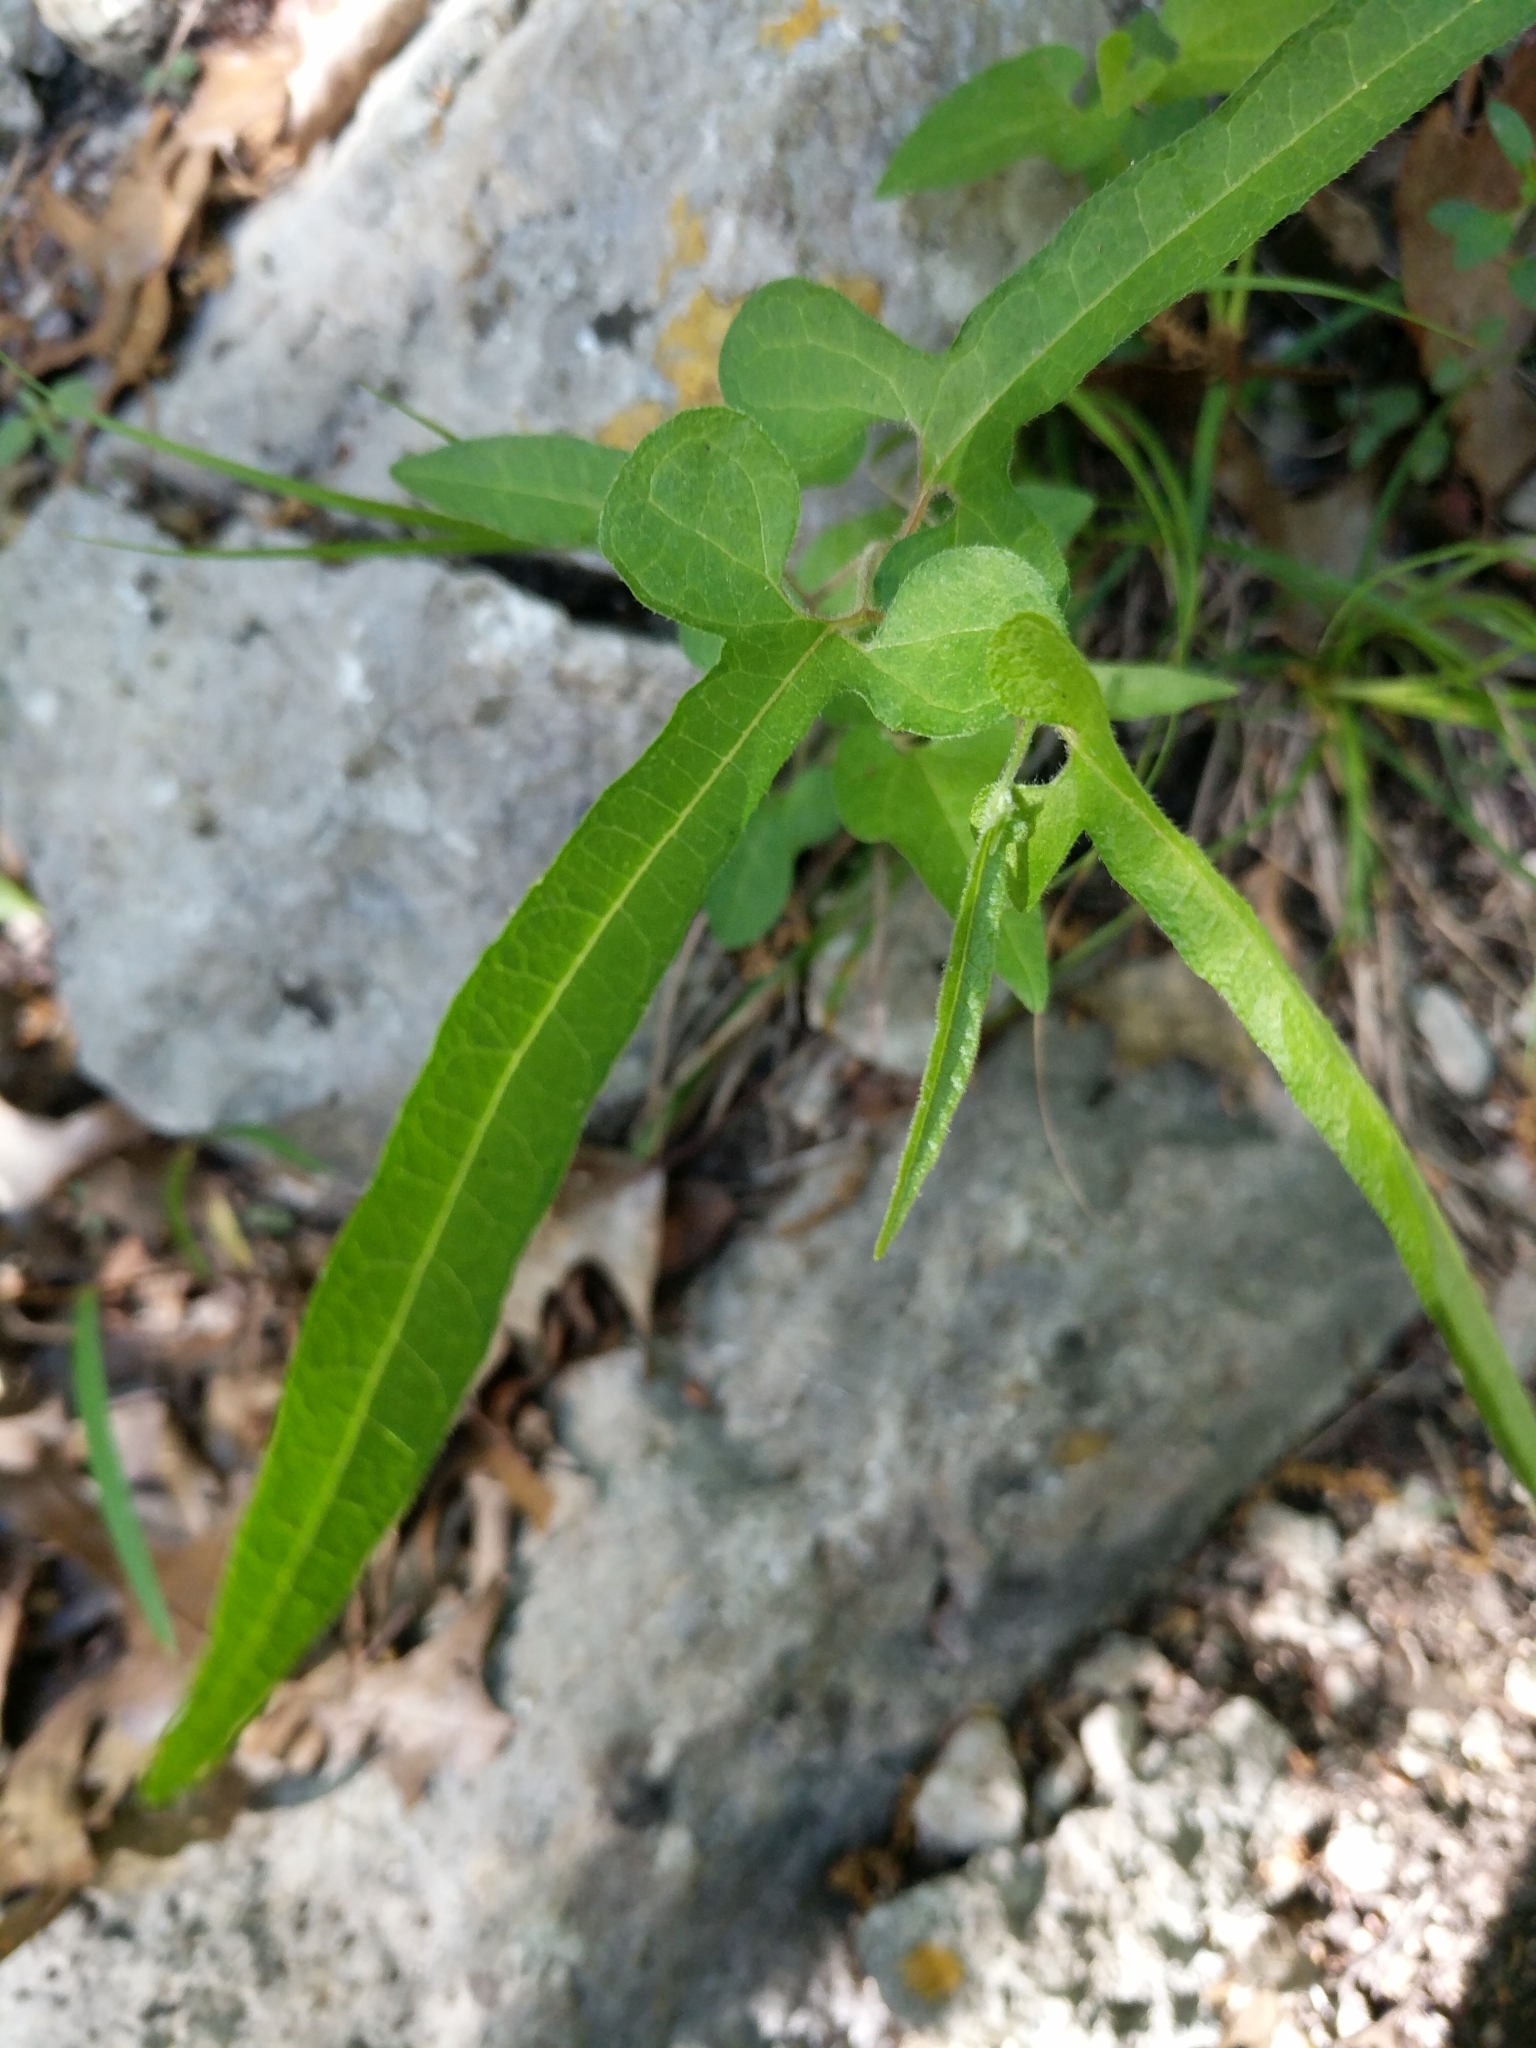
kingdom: Plantae
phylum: Tracheophyta
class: Magnoliopsida
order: Piperales
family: Aristolochiaceae
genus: Endodeca
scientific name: Endodeca serpentaria
